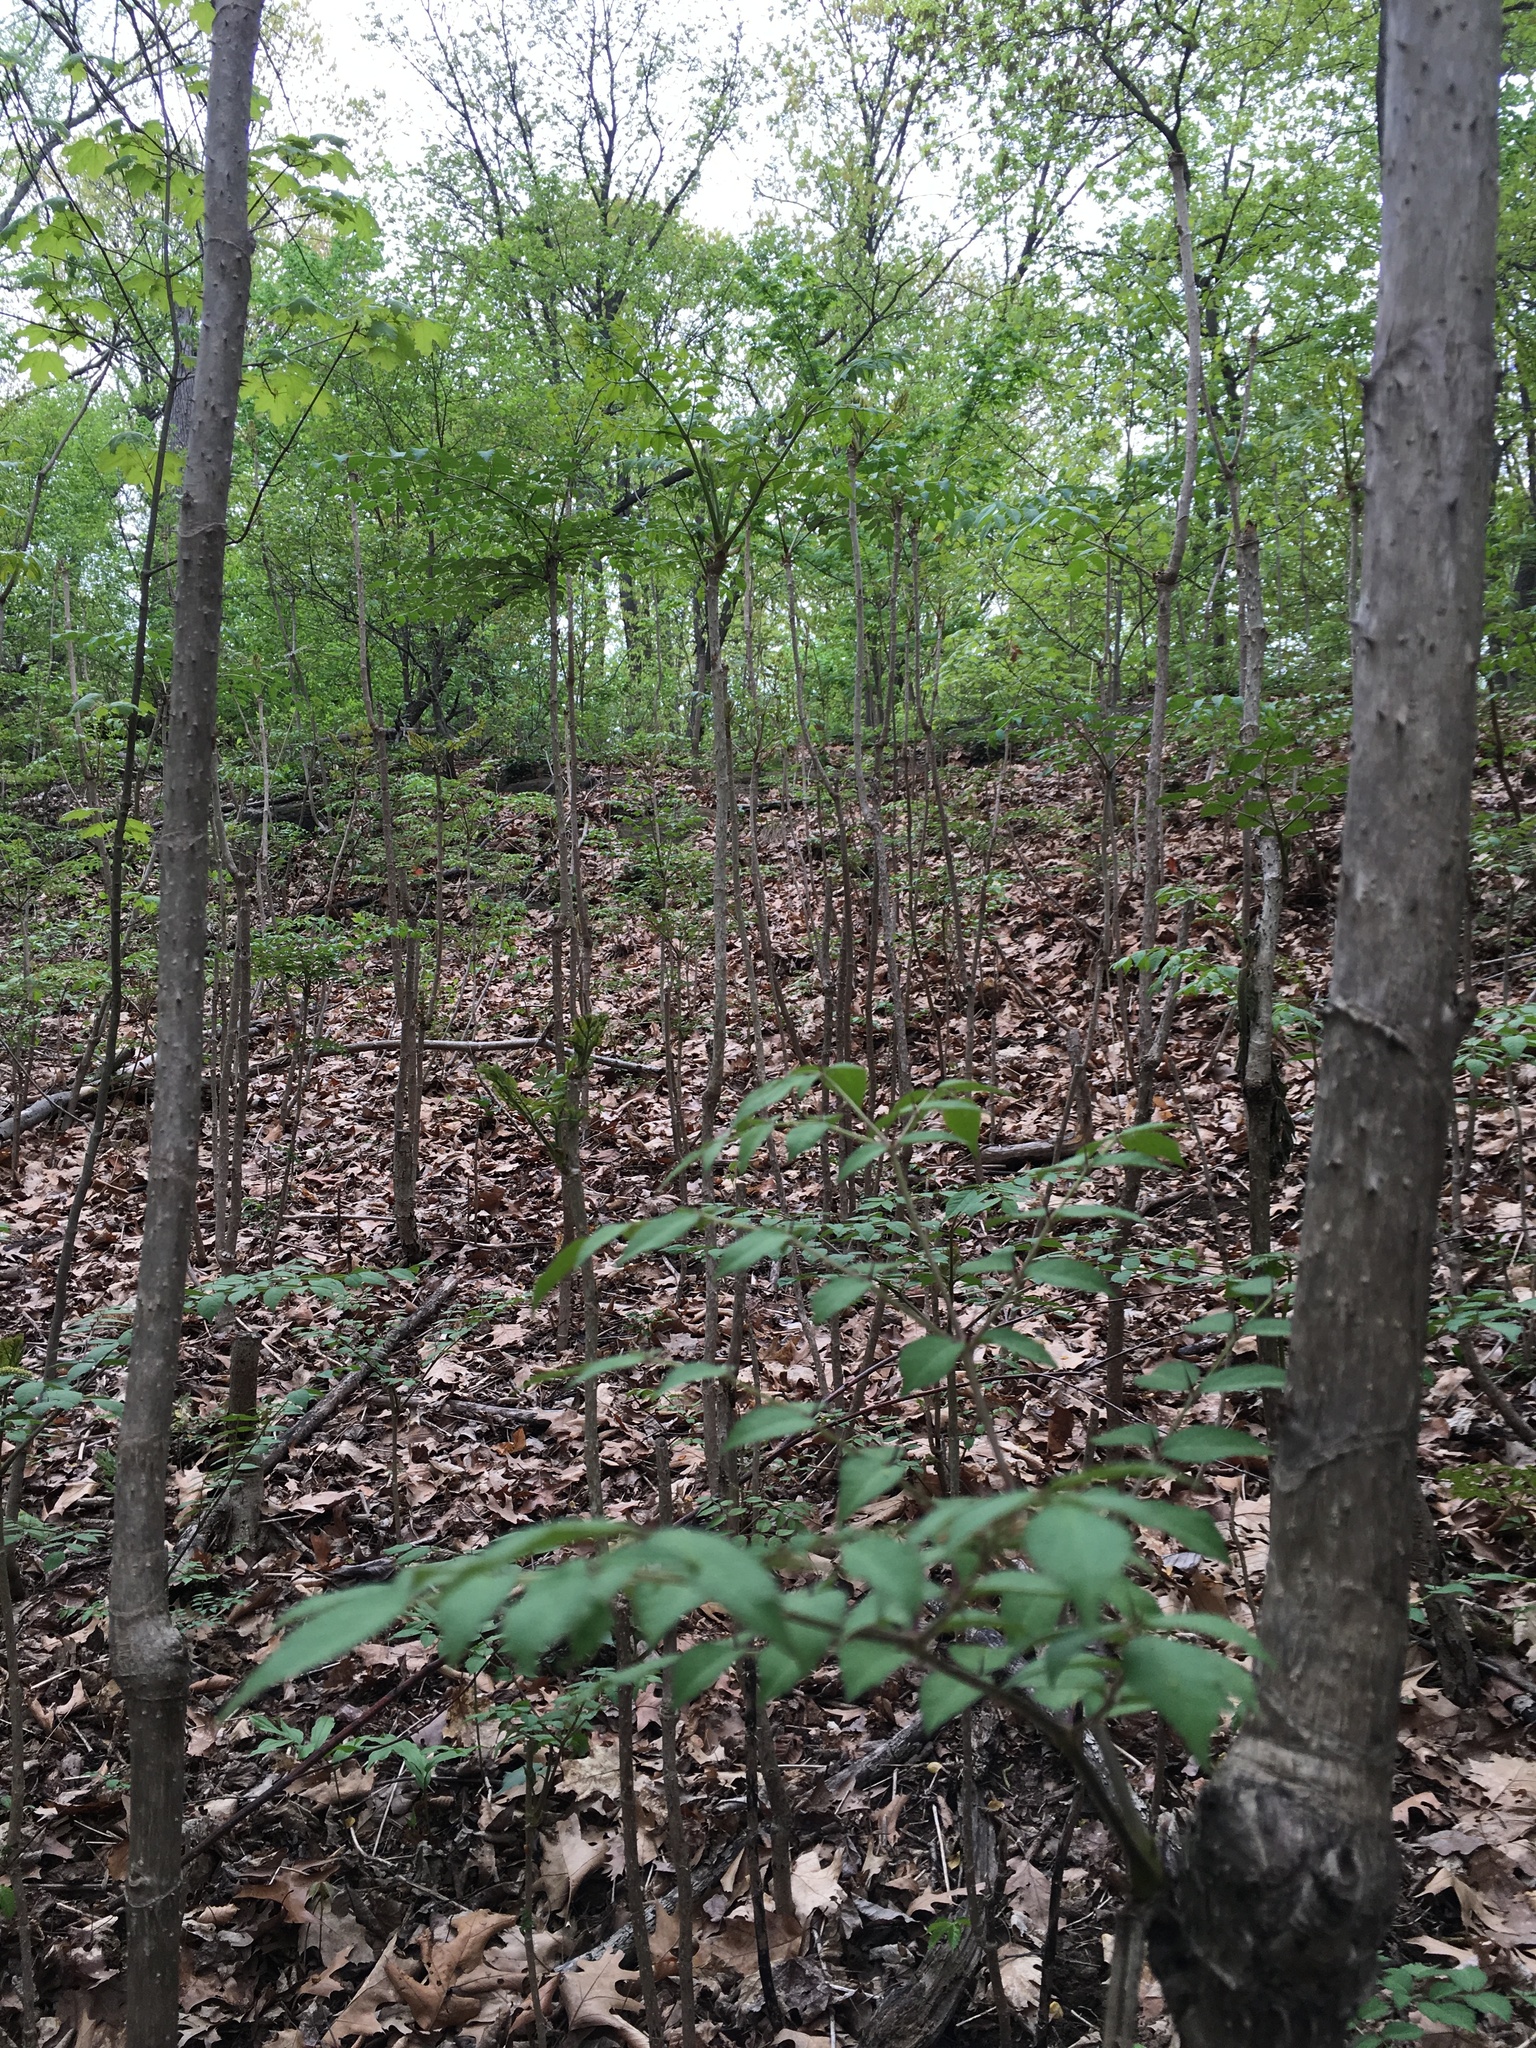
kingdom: Plantae
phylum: Tracheophyta
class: Magnoliopsida
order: Apiales
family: Araliaceae
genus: Aralia
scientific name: Aralia elata
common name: Japanese angelica-tree
